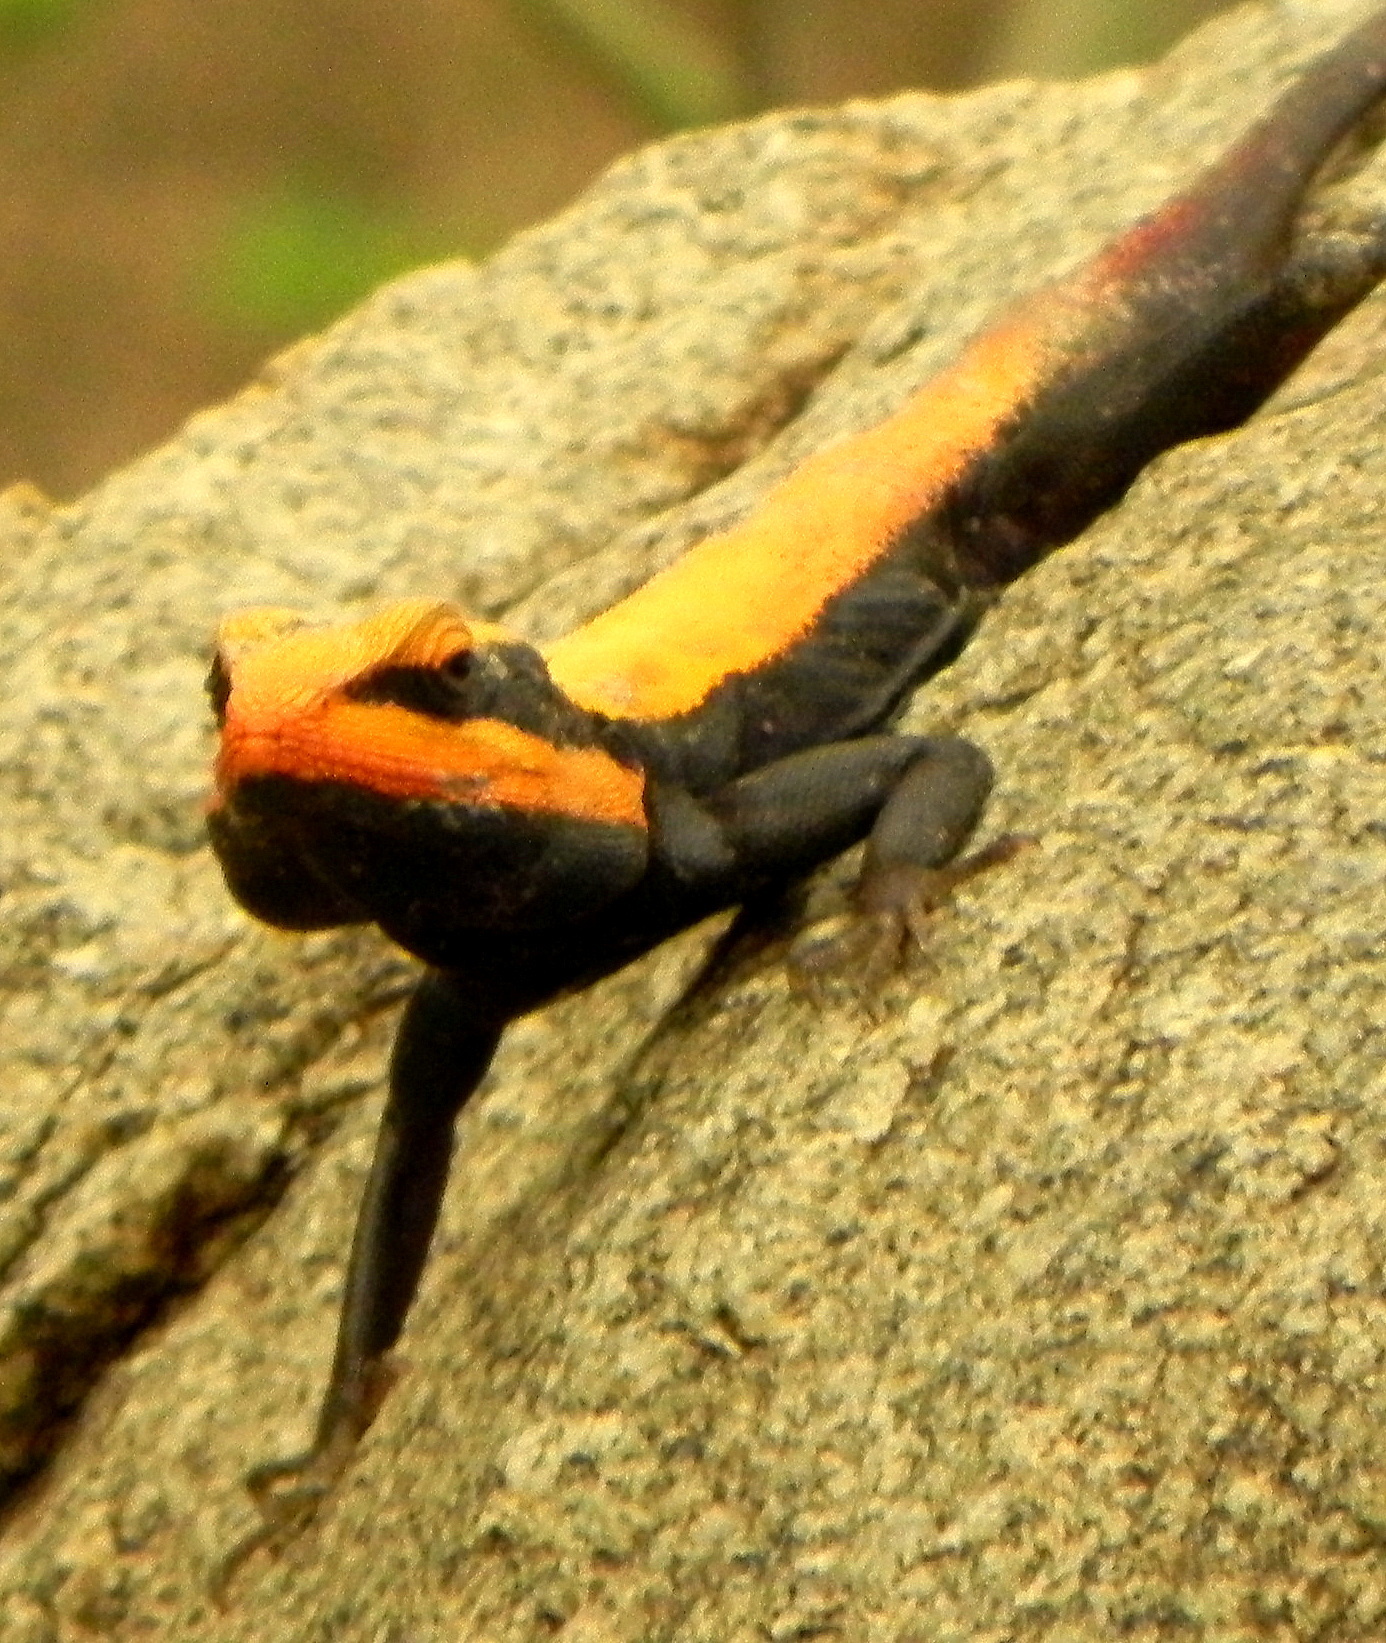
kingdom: Animalia
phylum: Chordata
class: Squamata
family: Agamidae
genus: Psammophilus
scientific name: Psammophilus dorsalis
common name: South indian rock agama
